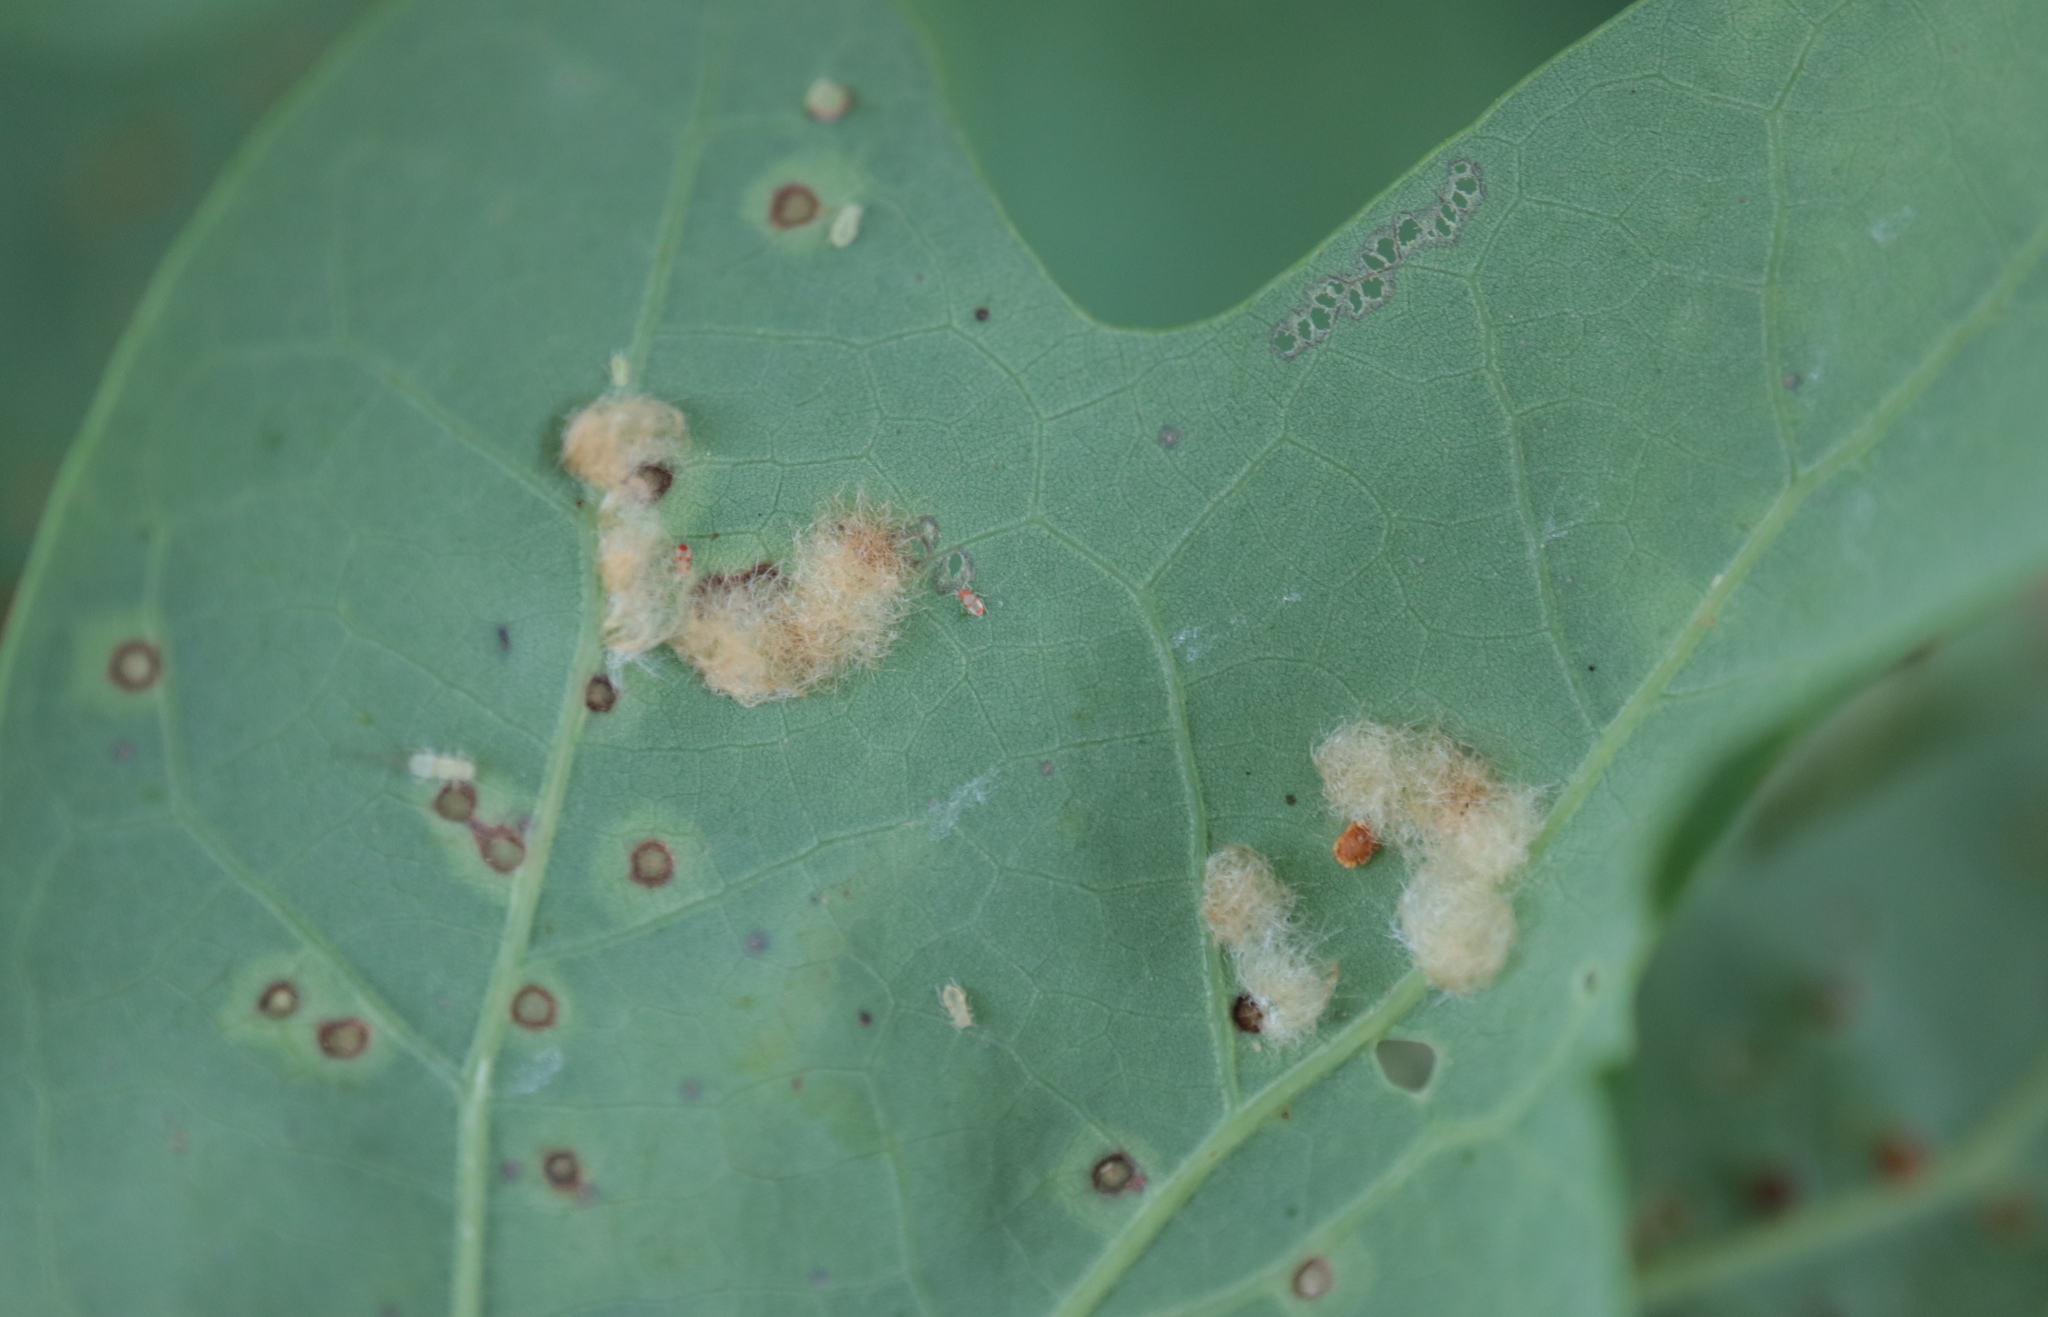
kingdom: Animalia
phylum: Arthropoda
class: Insecta
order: Hymenoptera
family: Cynipidae
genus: Neuroterus
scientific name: Neuroterus quercusverrucarum
